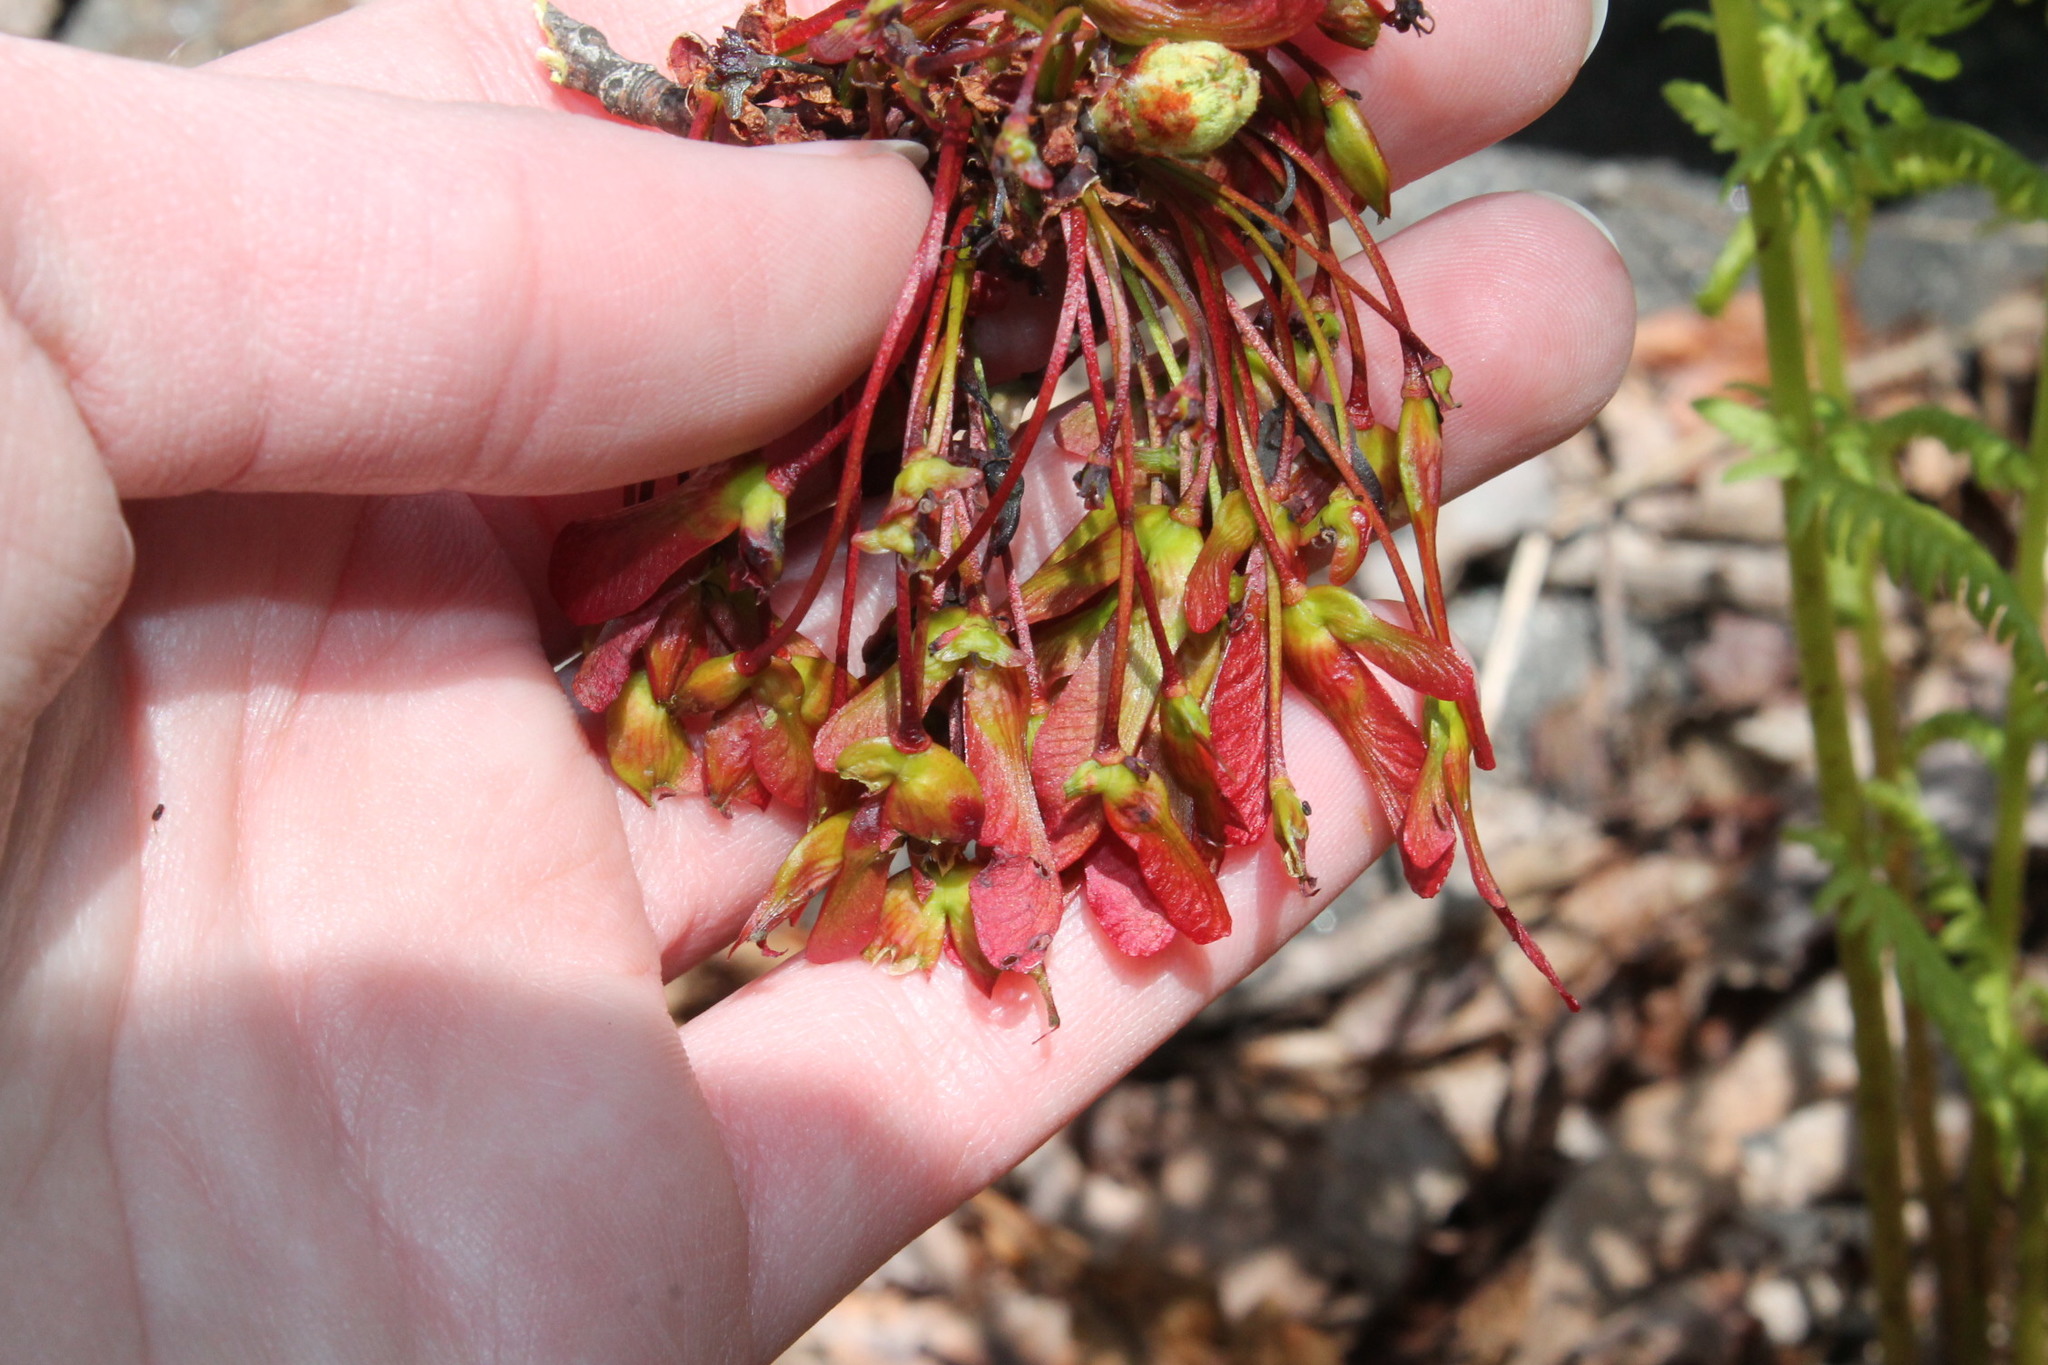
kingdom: Plantae
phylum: Tracheophyta
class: Magnoliopsida
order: Sapindales
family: Sapindaceae
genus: Acer
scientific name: Acer rubrum
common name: Red maple
